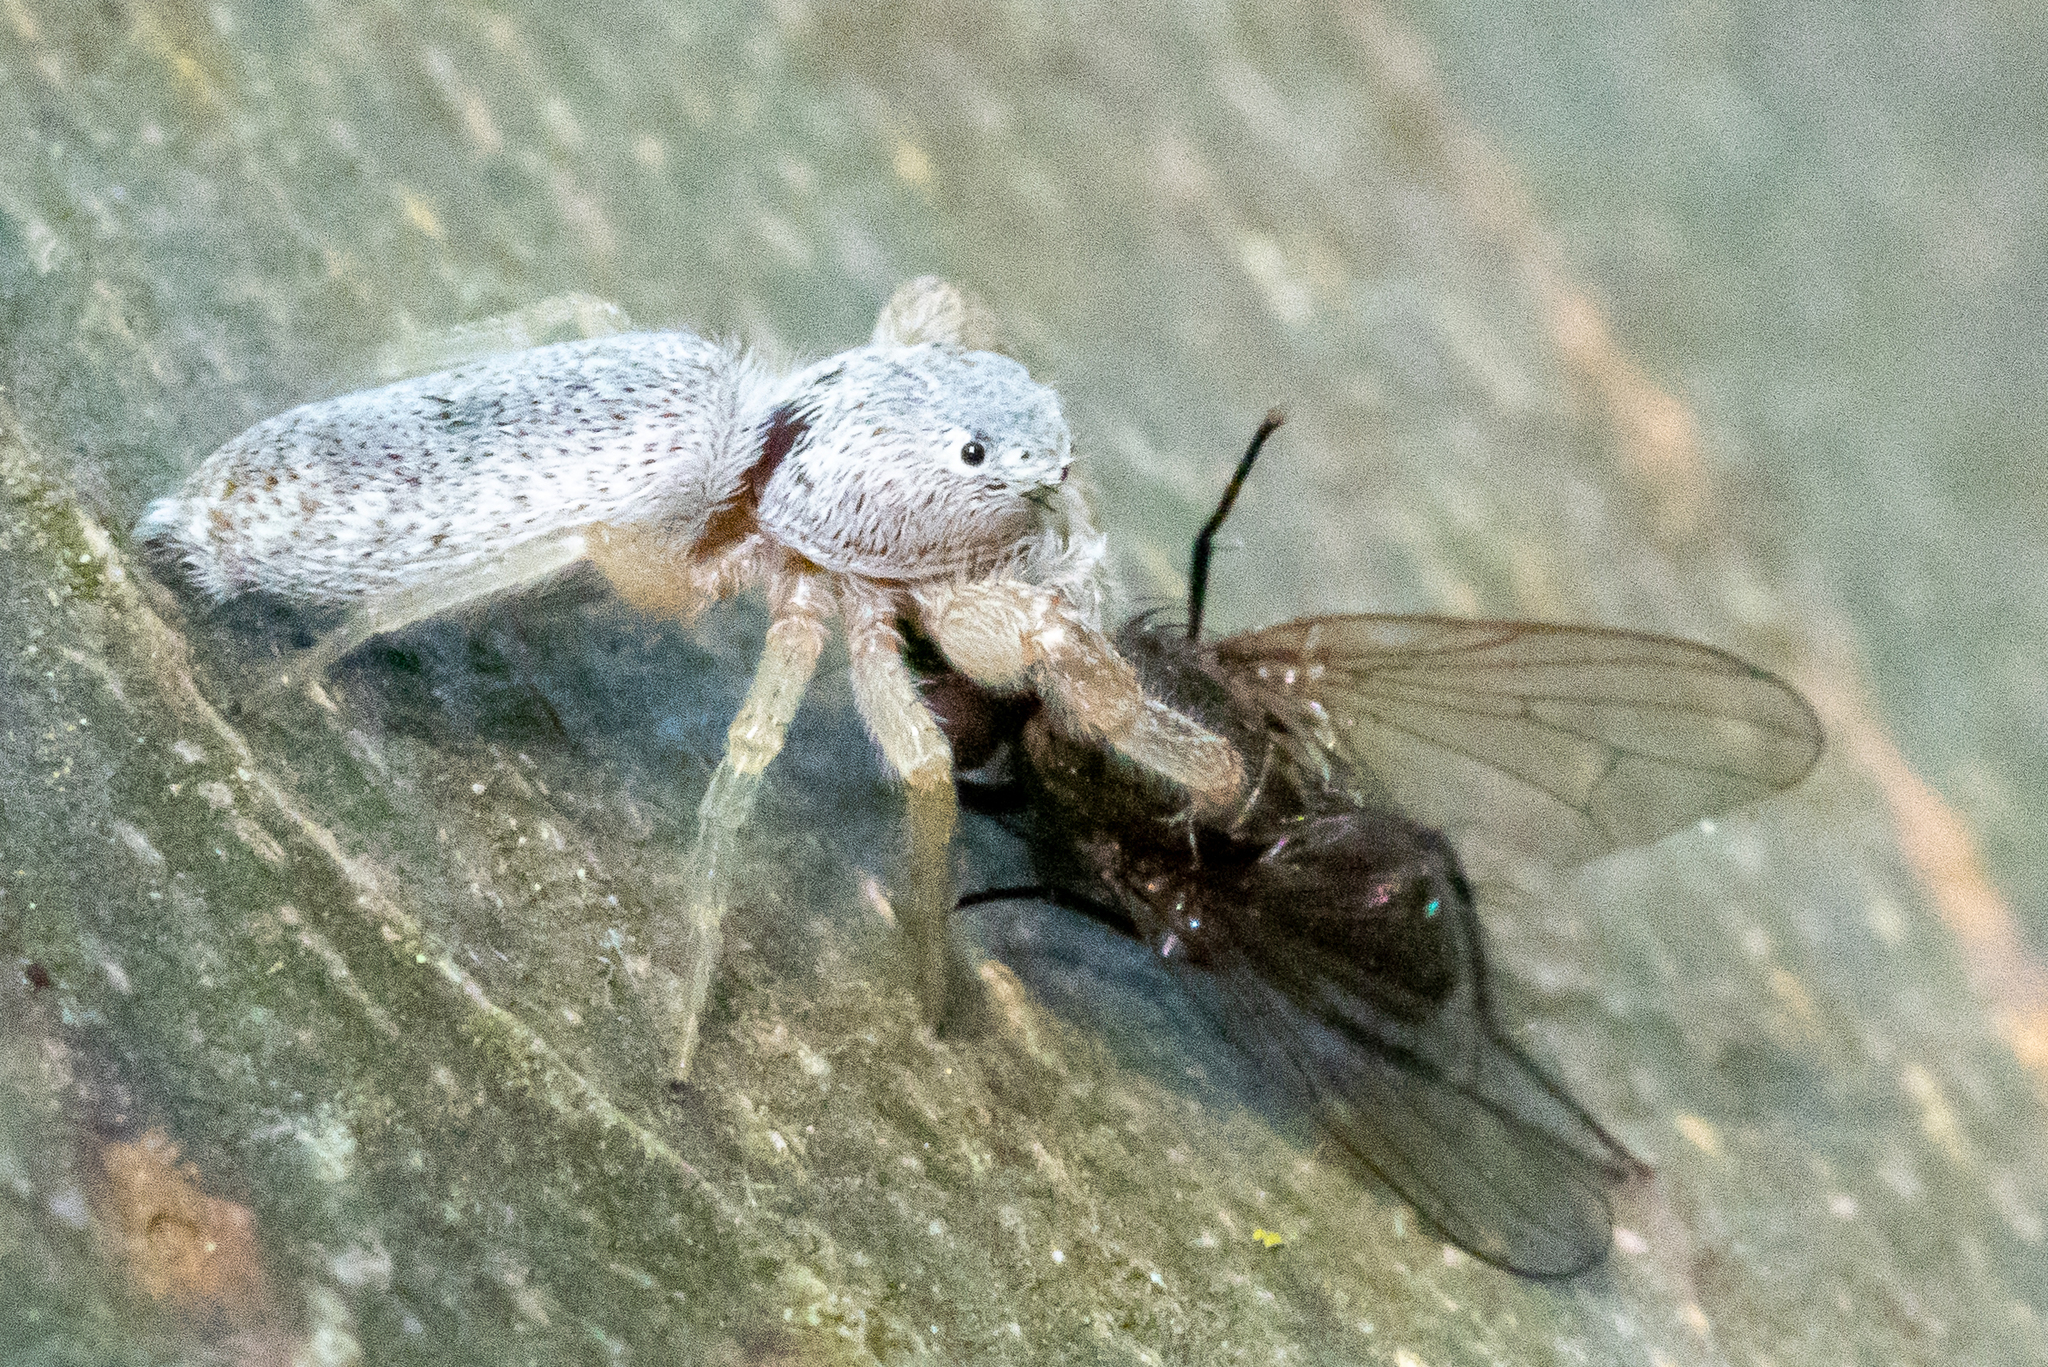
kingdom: Animalia
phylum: Arthropoda
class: Arachnida
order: Araneae
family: Salticidae
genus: Hentzia
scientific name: Hentzia mitrata
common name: White-jawed jumping spider
